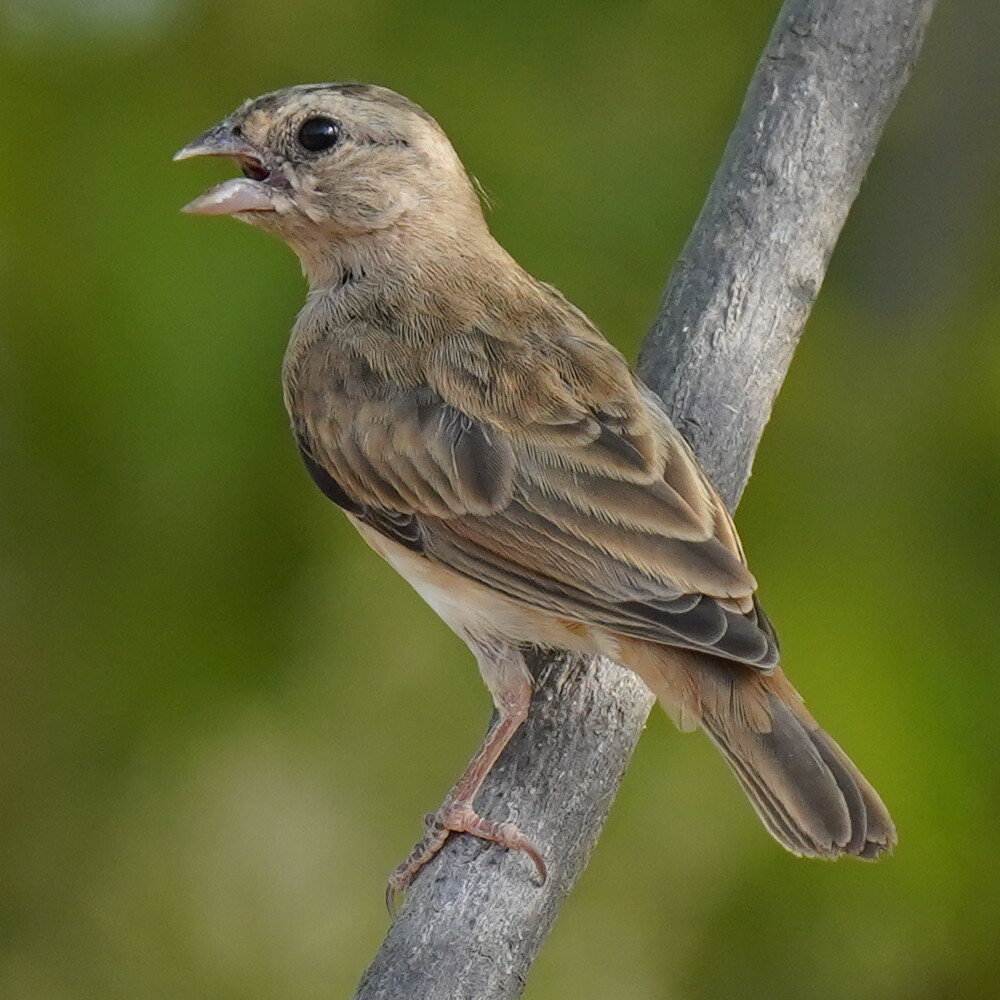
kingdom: Animalia
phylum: Chordata
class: Aves
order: Passeriformes
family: Viduidae
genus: Vidua
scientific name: Vidua chalybeata
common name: Village indigobird
